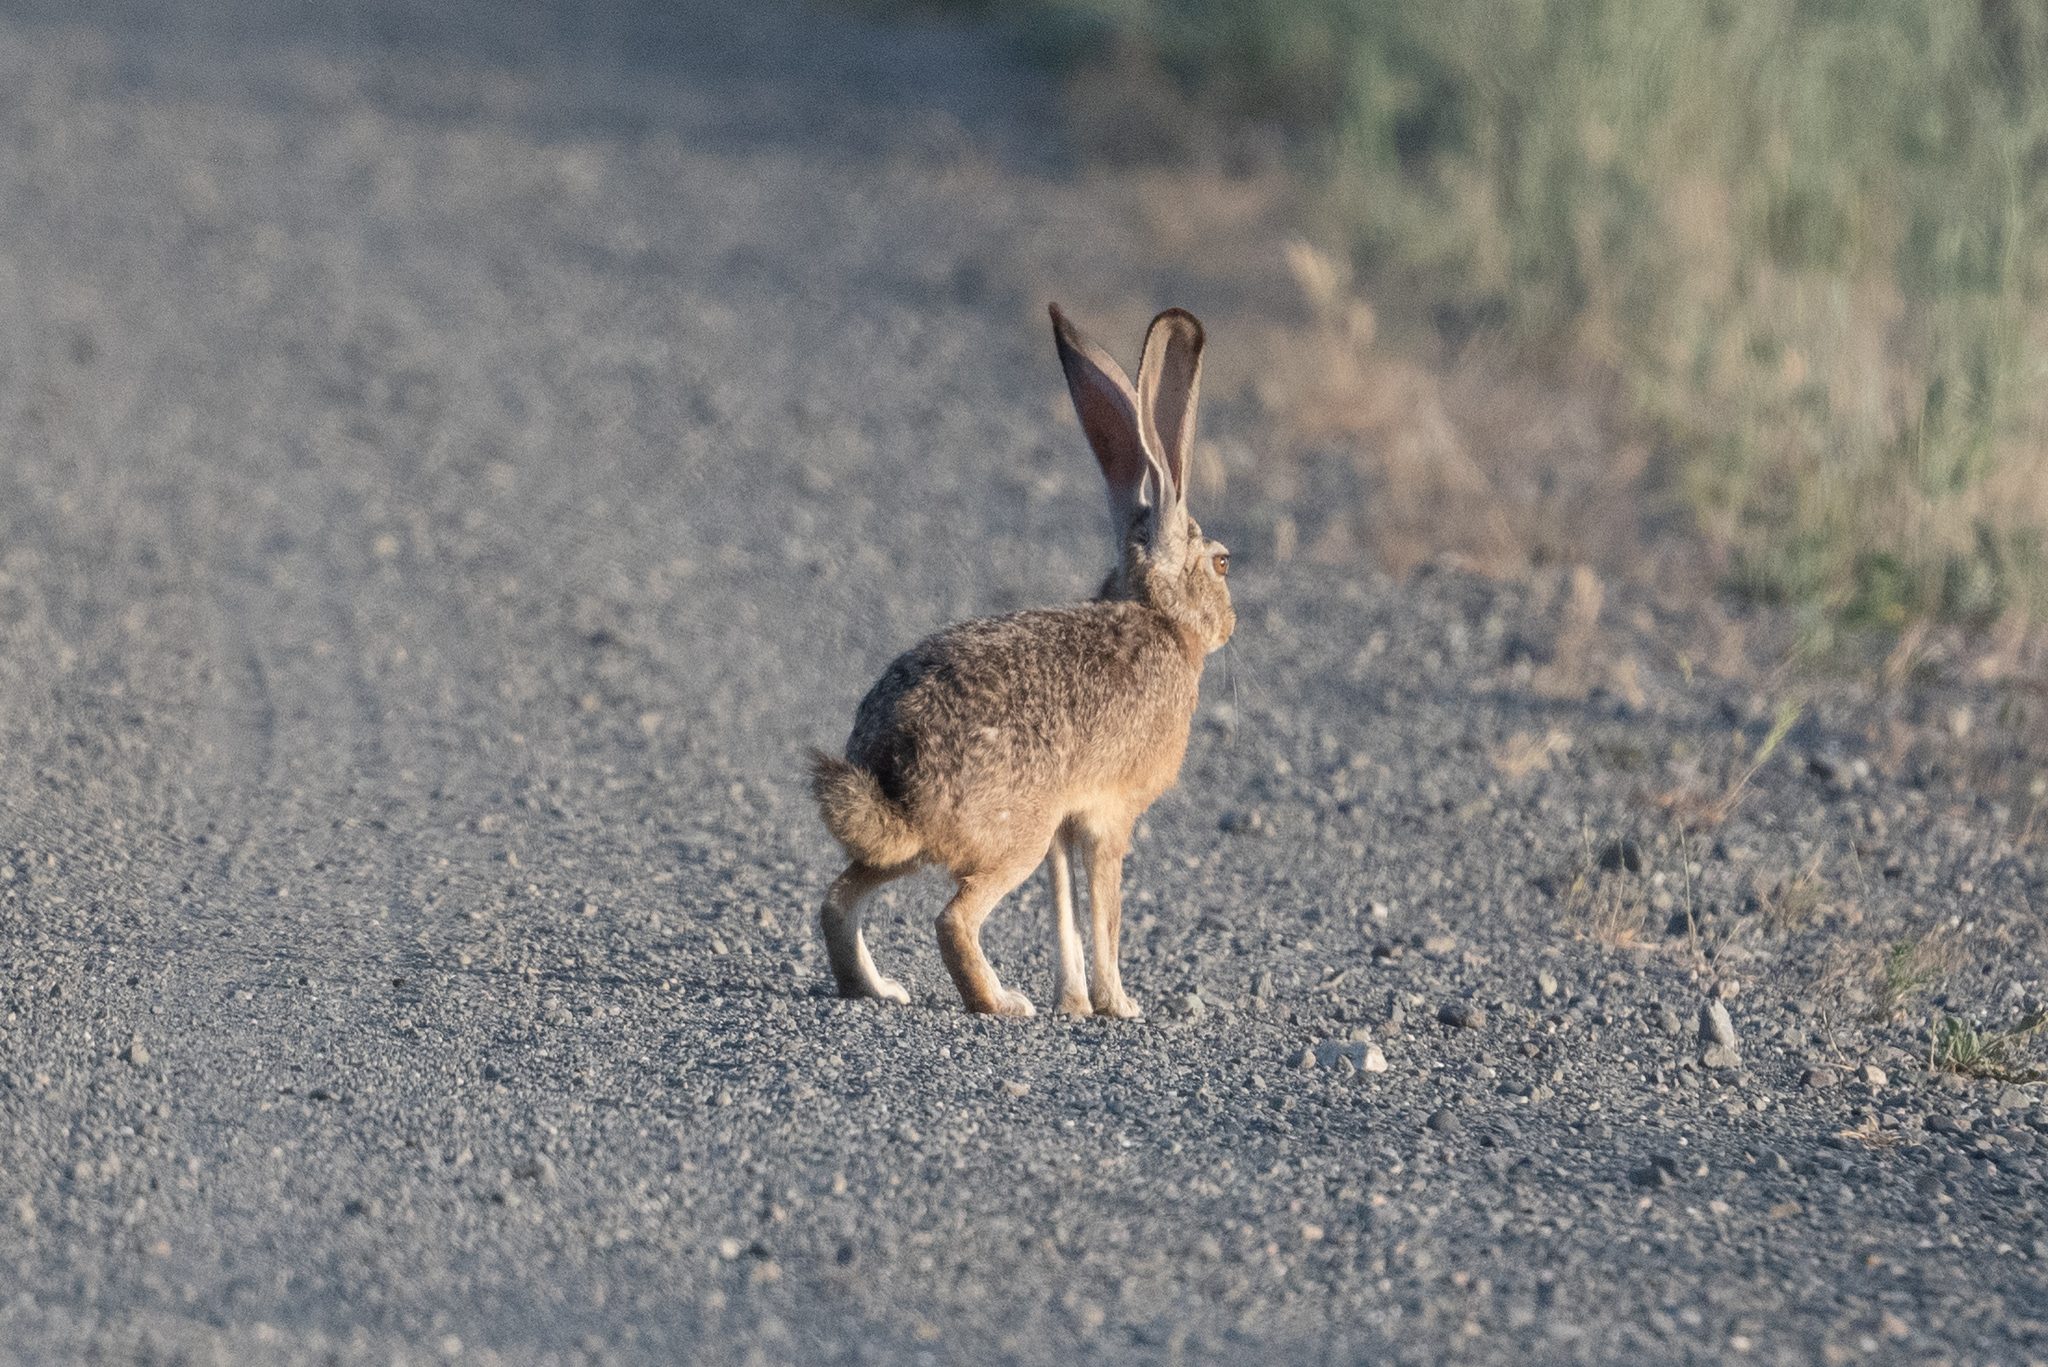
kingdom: Animalia
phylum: Chordata
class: Mammalia
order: Lagomorpha
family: Leporidae
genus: Lepus
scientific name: Lepus californicus
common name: Black-tailed jackrabbit
